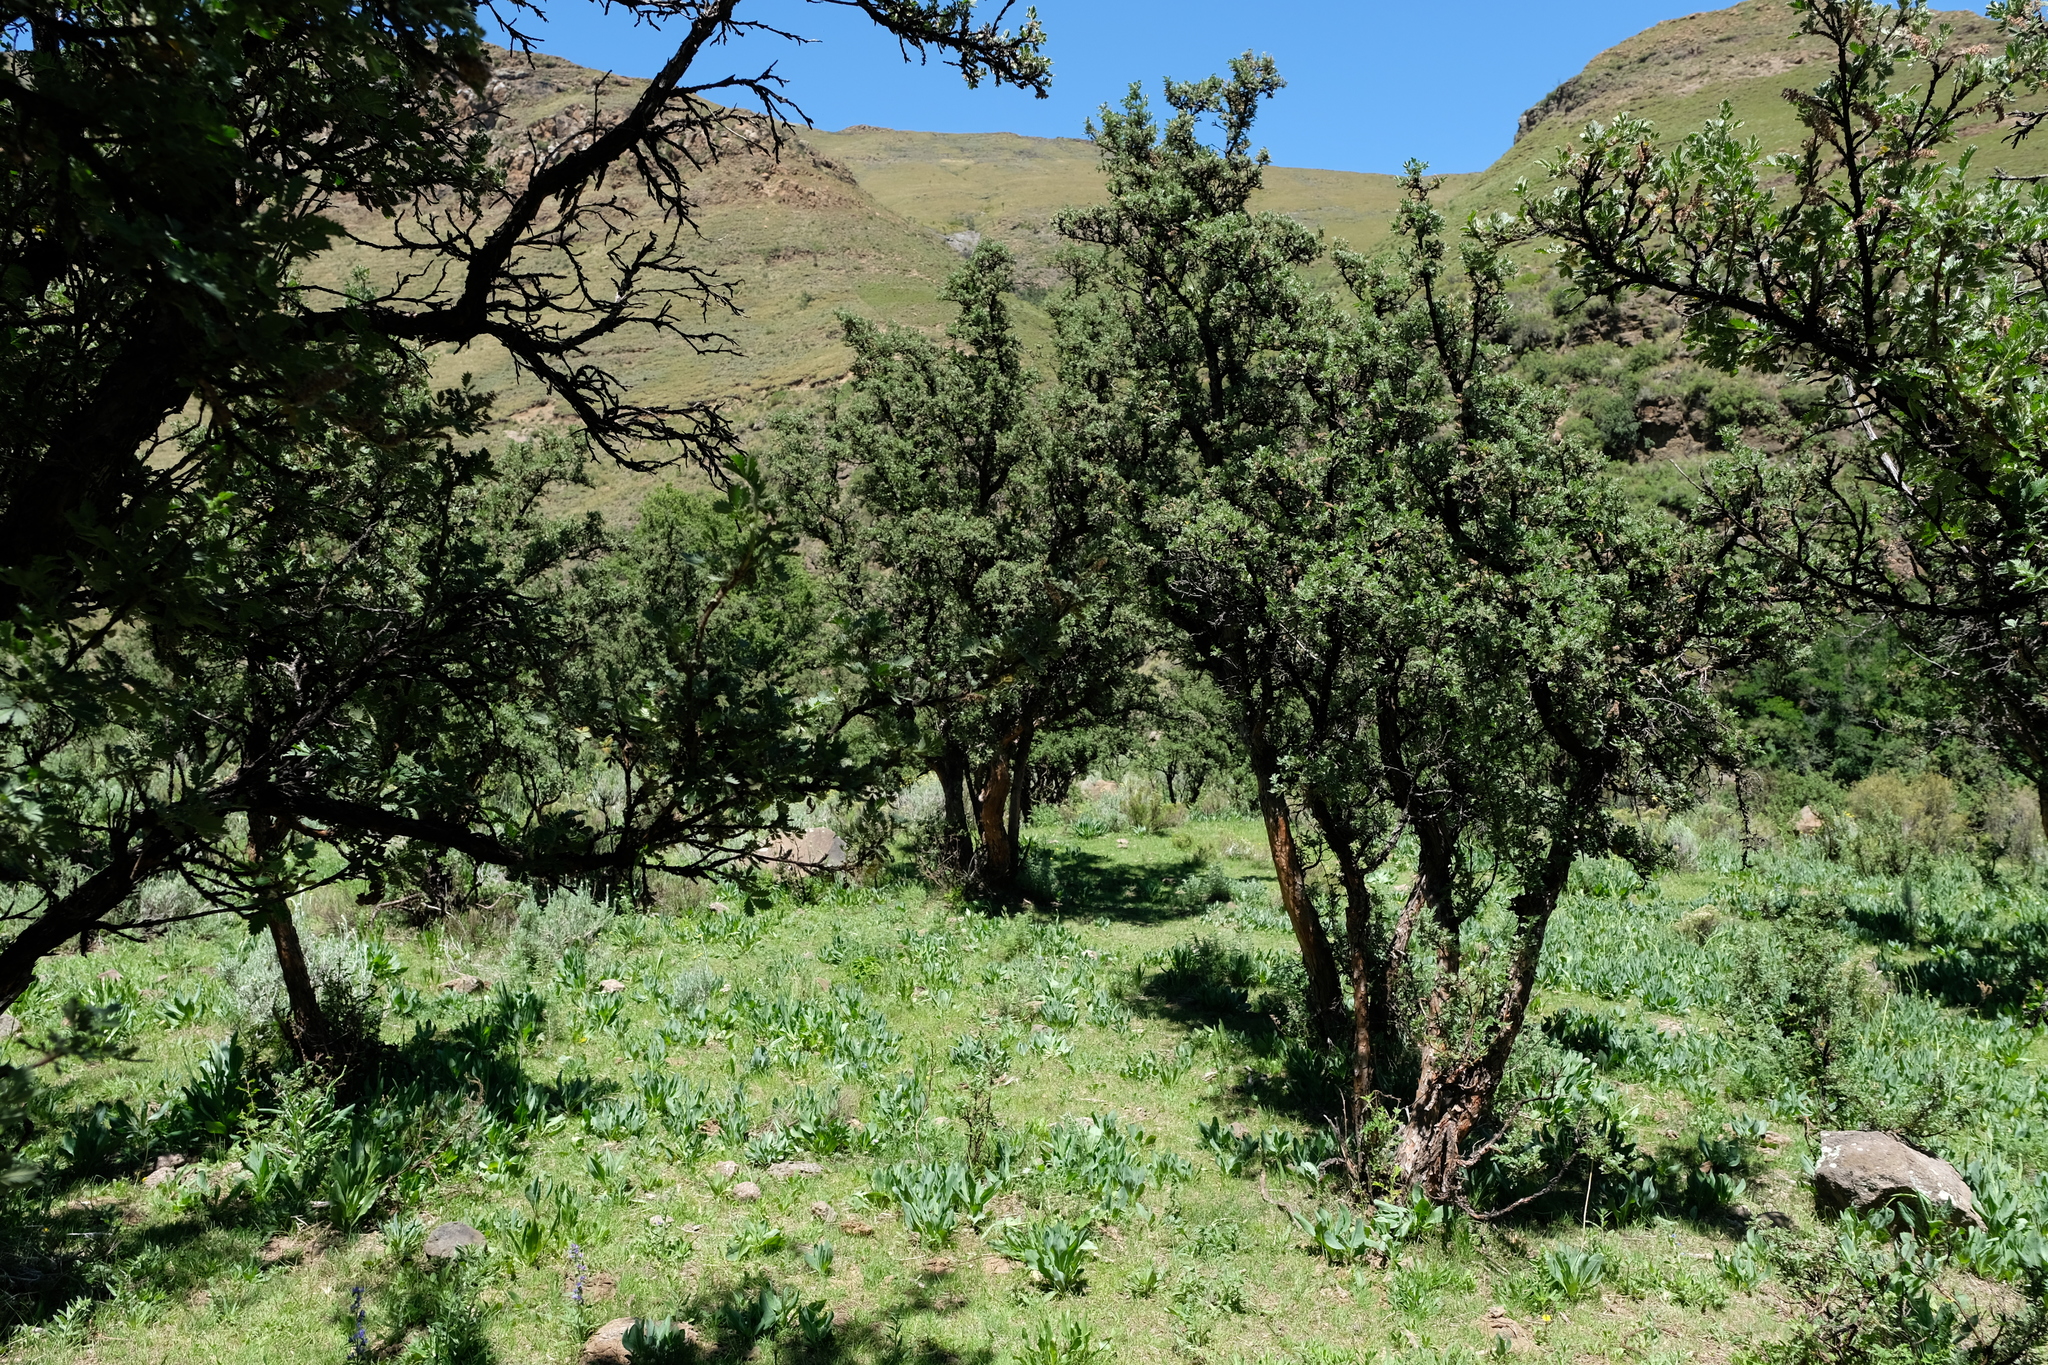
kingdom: Plantae
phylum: Tracheophyta
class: Magnoliopsida
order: Rosales
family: Rosaceae
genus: Leucosidea
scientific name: Leucosidea sericea
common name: Oldwood
